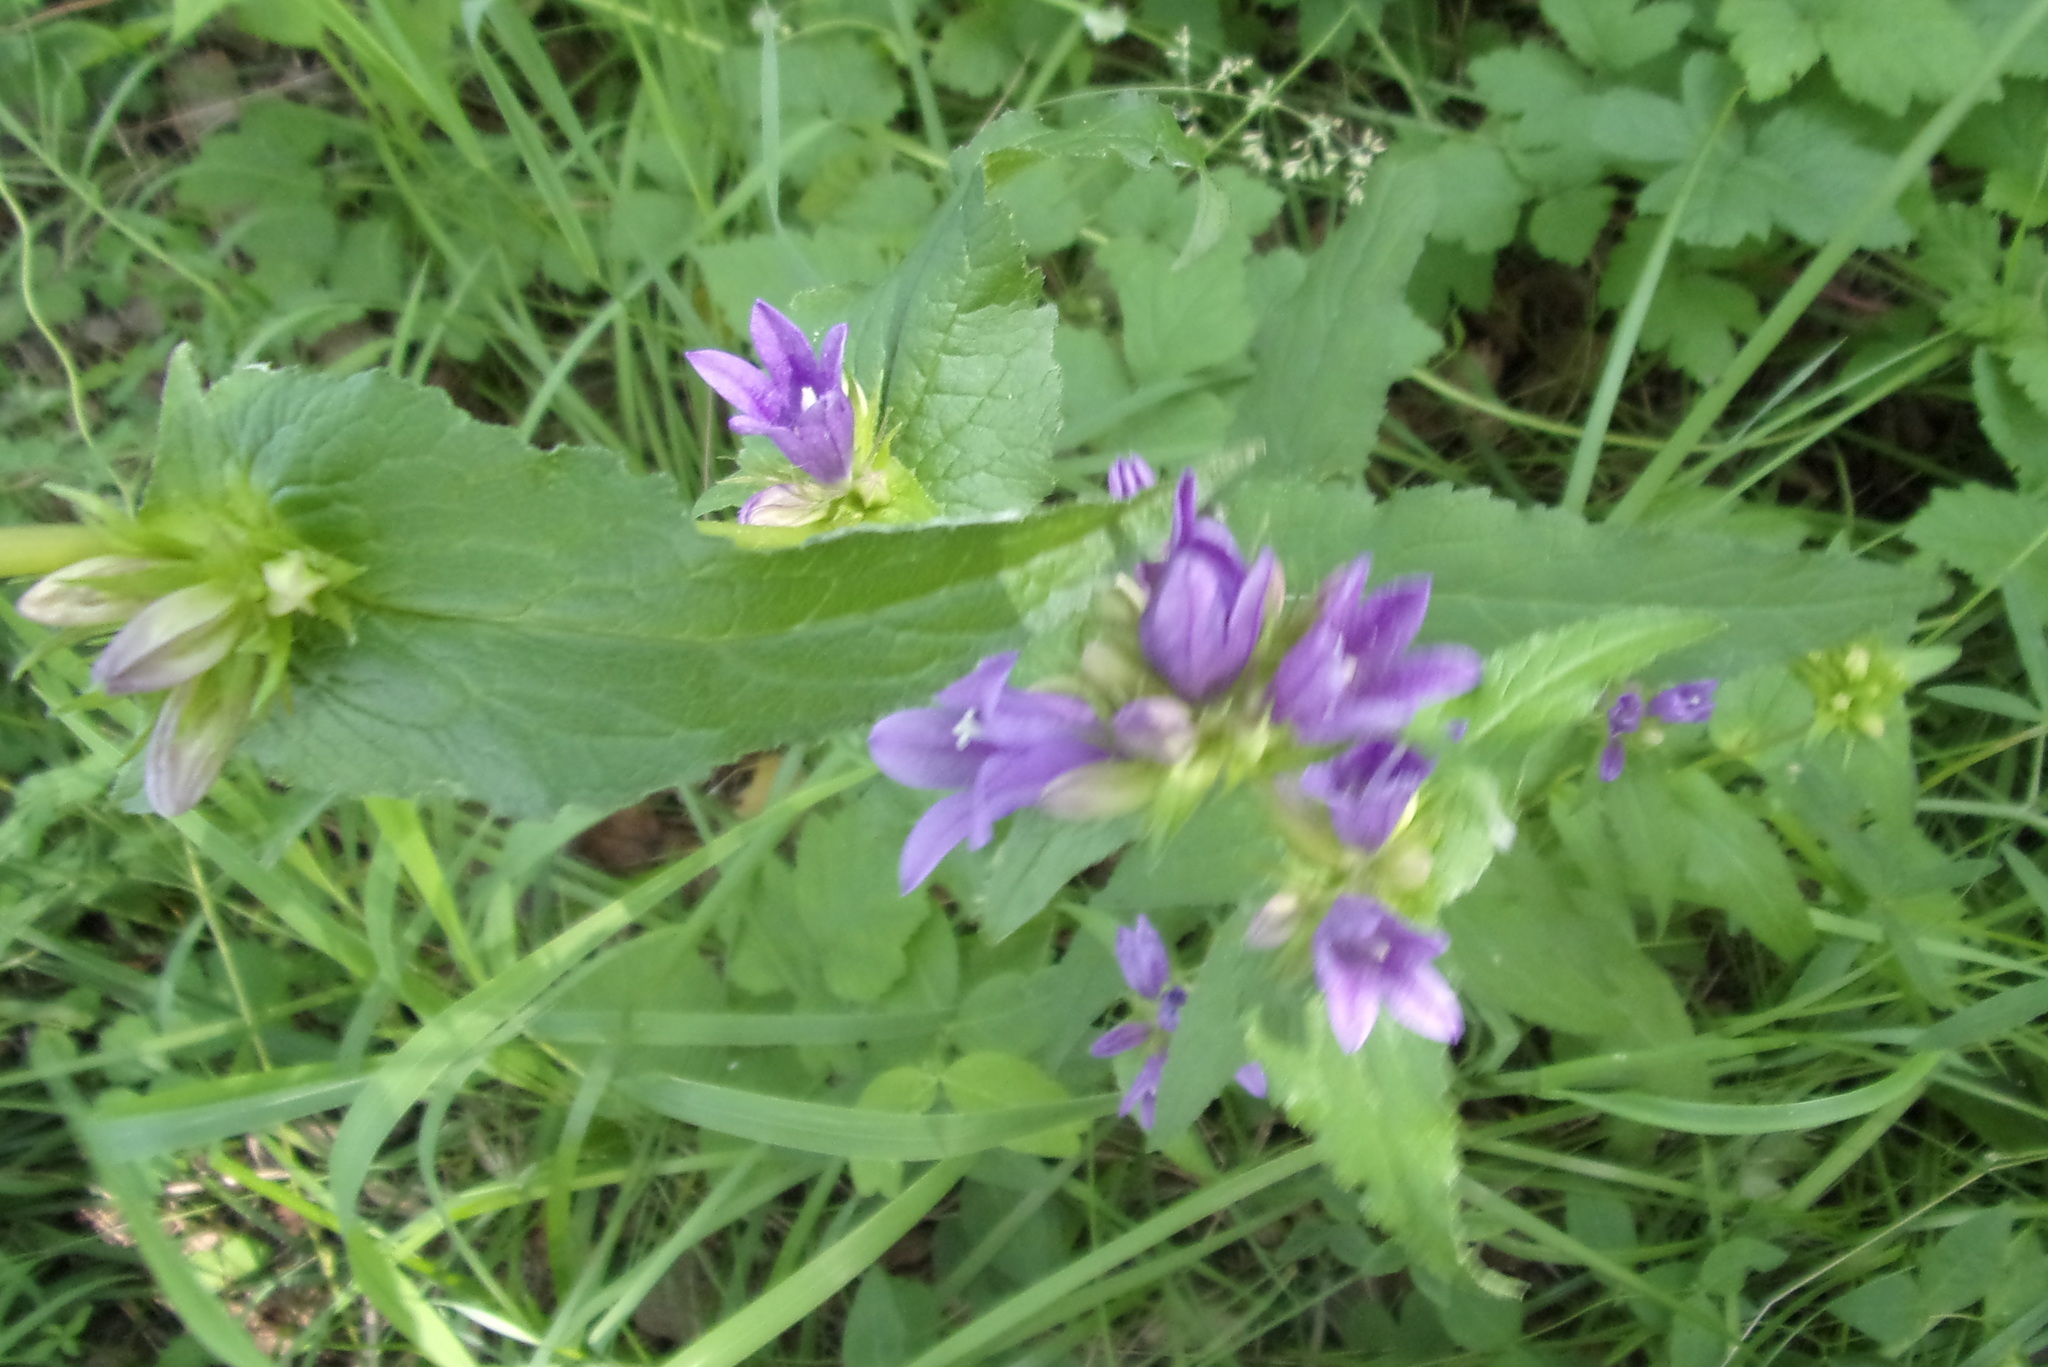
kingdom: Plantae
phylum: Tracheophyta
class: Magnoliopsida
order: Asterales
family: Campanulaceae
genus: Campanula
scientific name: Campanula glomerata
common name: Clustered bellflower
